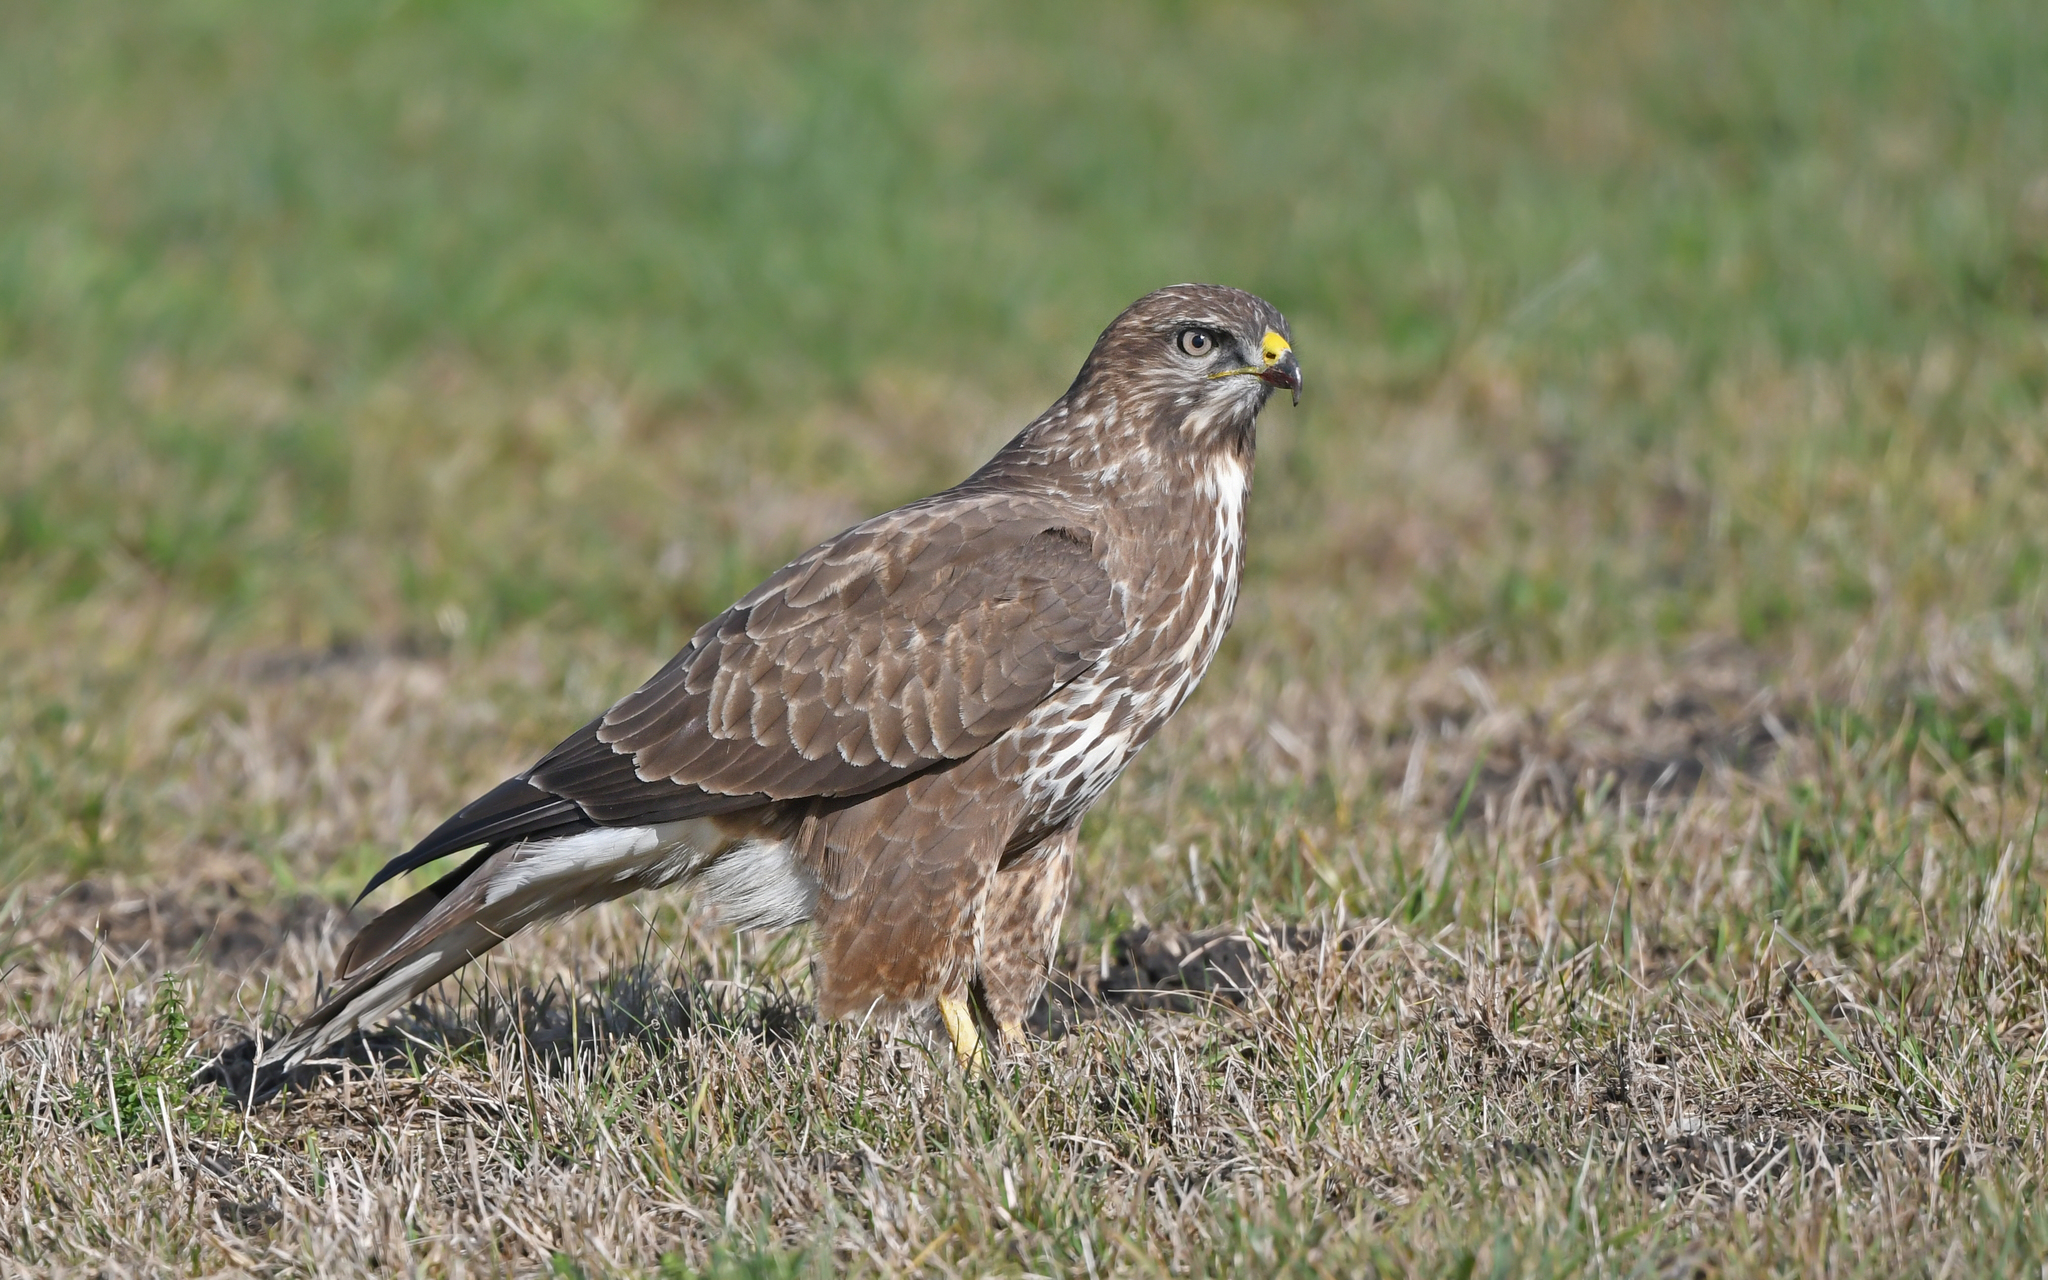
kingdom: Animalia
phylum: Chordata
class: Aves
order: Accipitriformes
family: Accipitridae
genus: Buteo
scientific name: Buteo buteo
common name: Common buzzard
